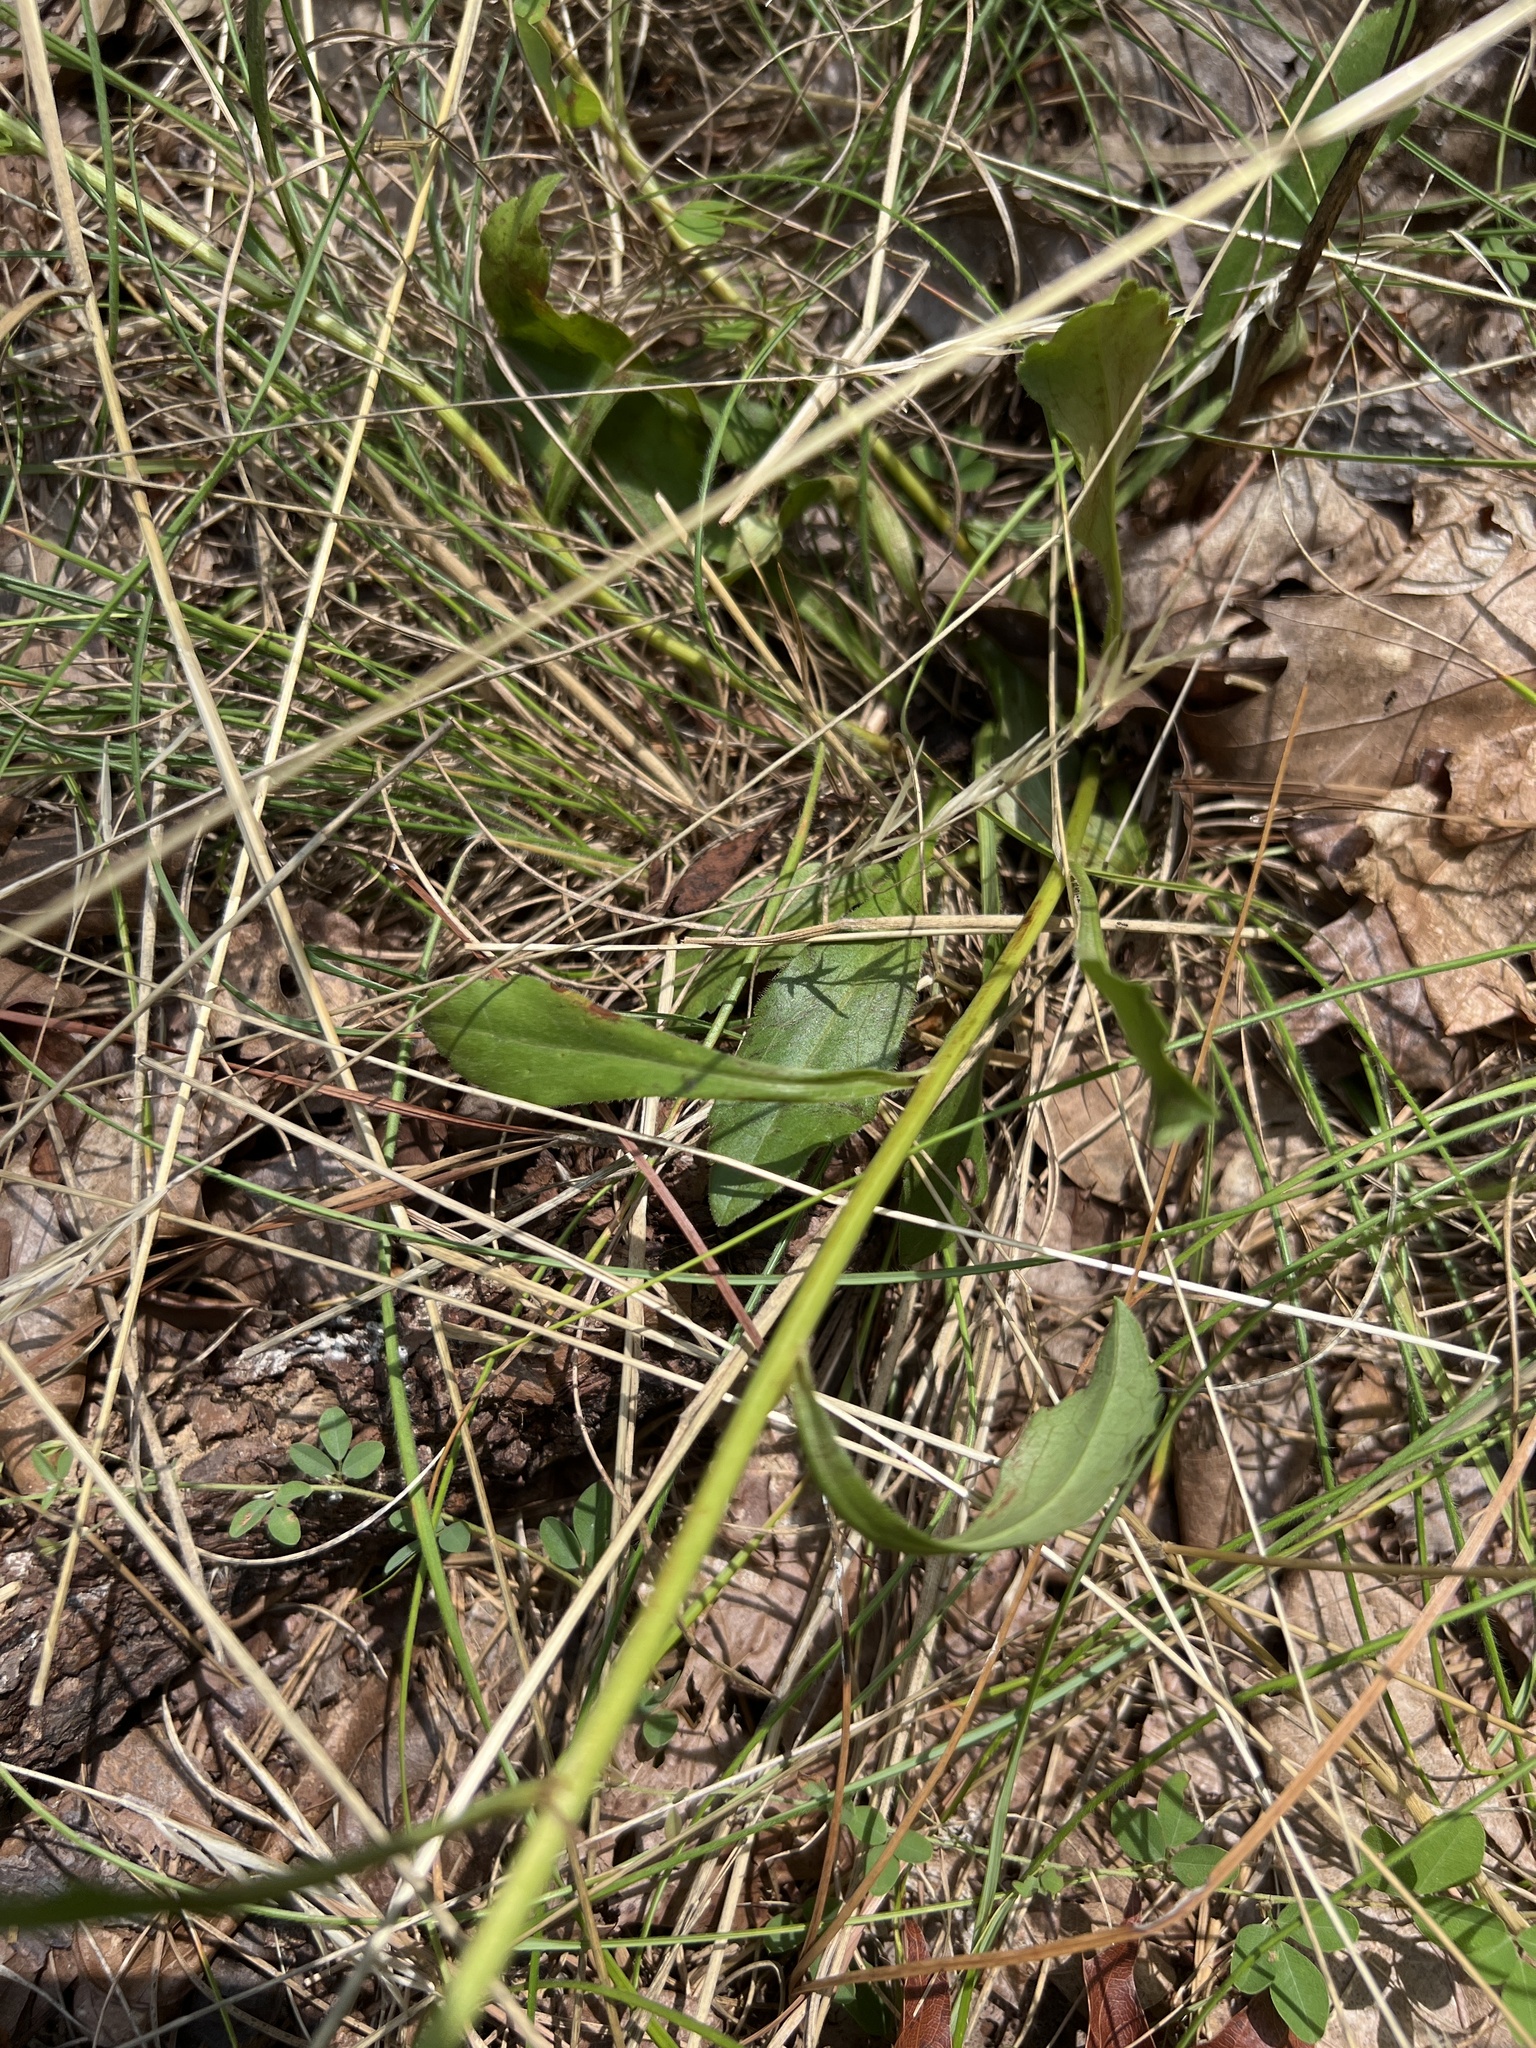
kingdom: Plantae
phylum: Tracheophyta
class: Magnoliopsida
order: Asterales
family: Asteraceae
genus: Sericocarpus
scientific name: Sericocarpus asteroides
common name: Toothed white-top aster
